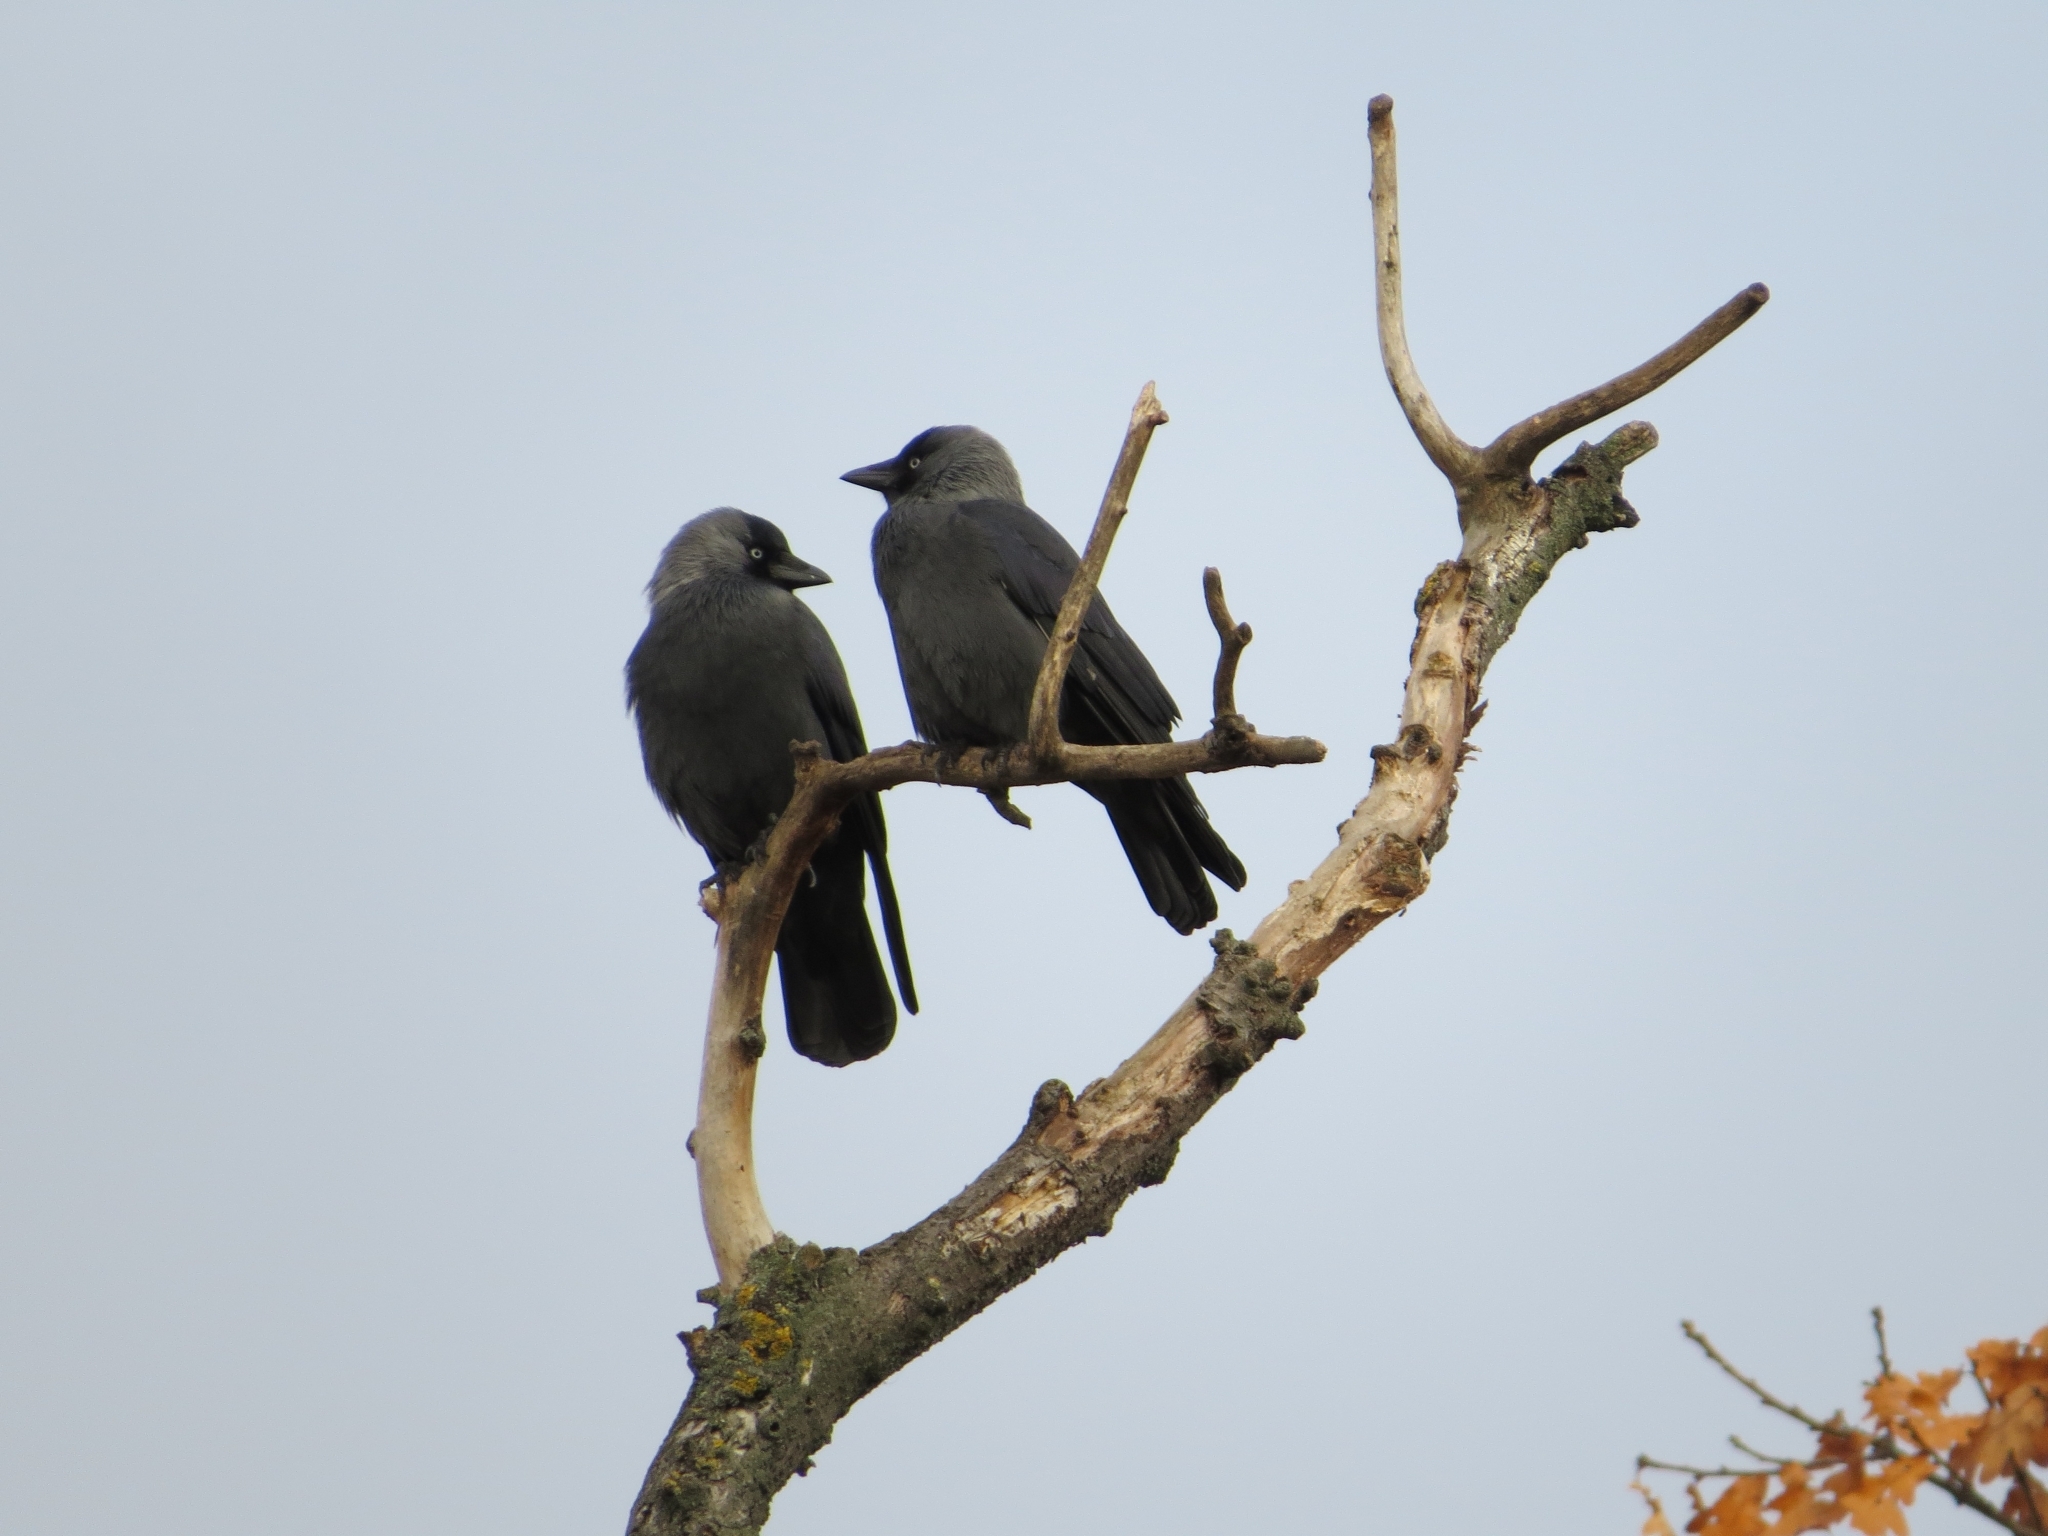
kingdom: Animalia
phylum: Chordata
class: Aves
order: Passeriformes
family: Corvidae
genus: Coloeus
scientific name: Coloeus monedula
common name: Western jackdaw
